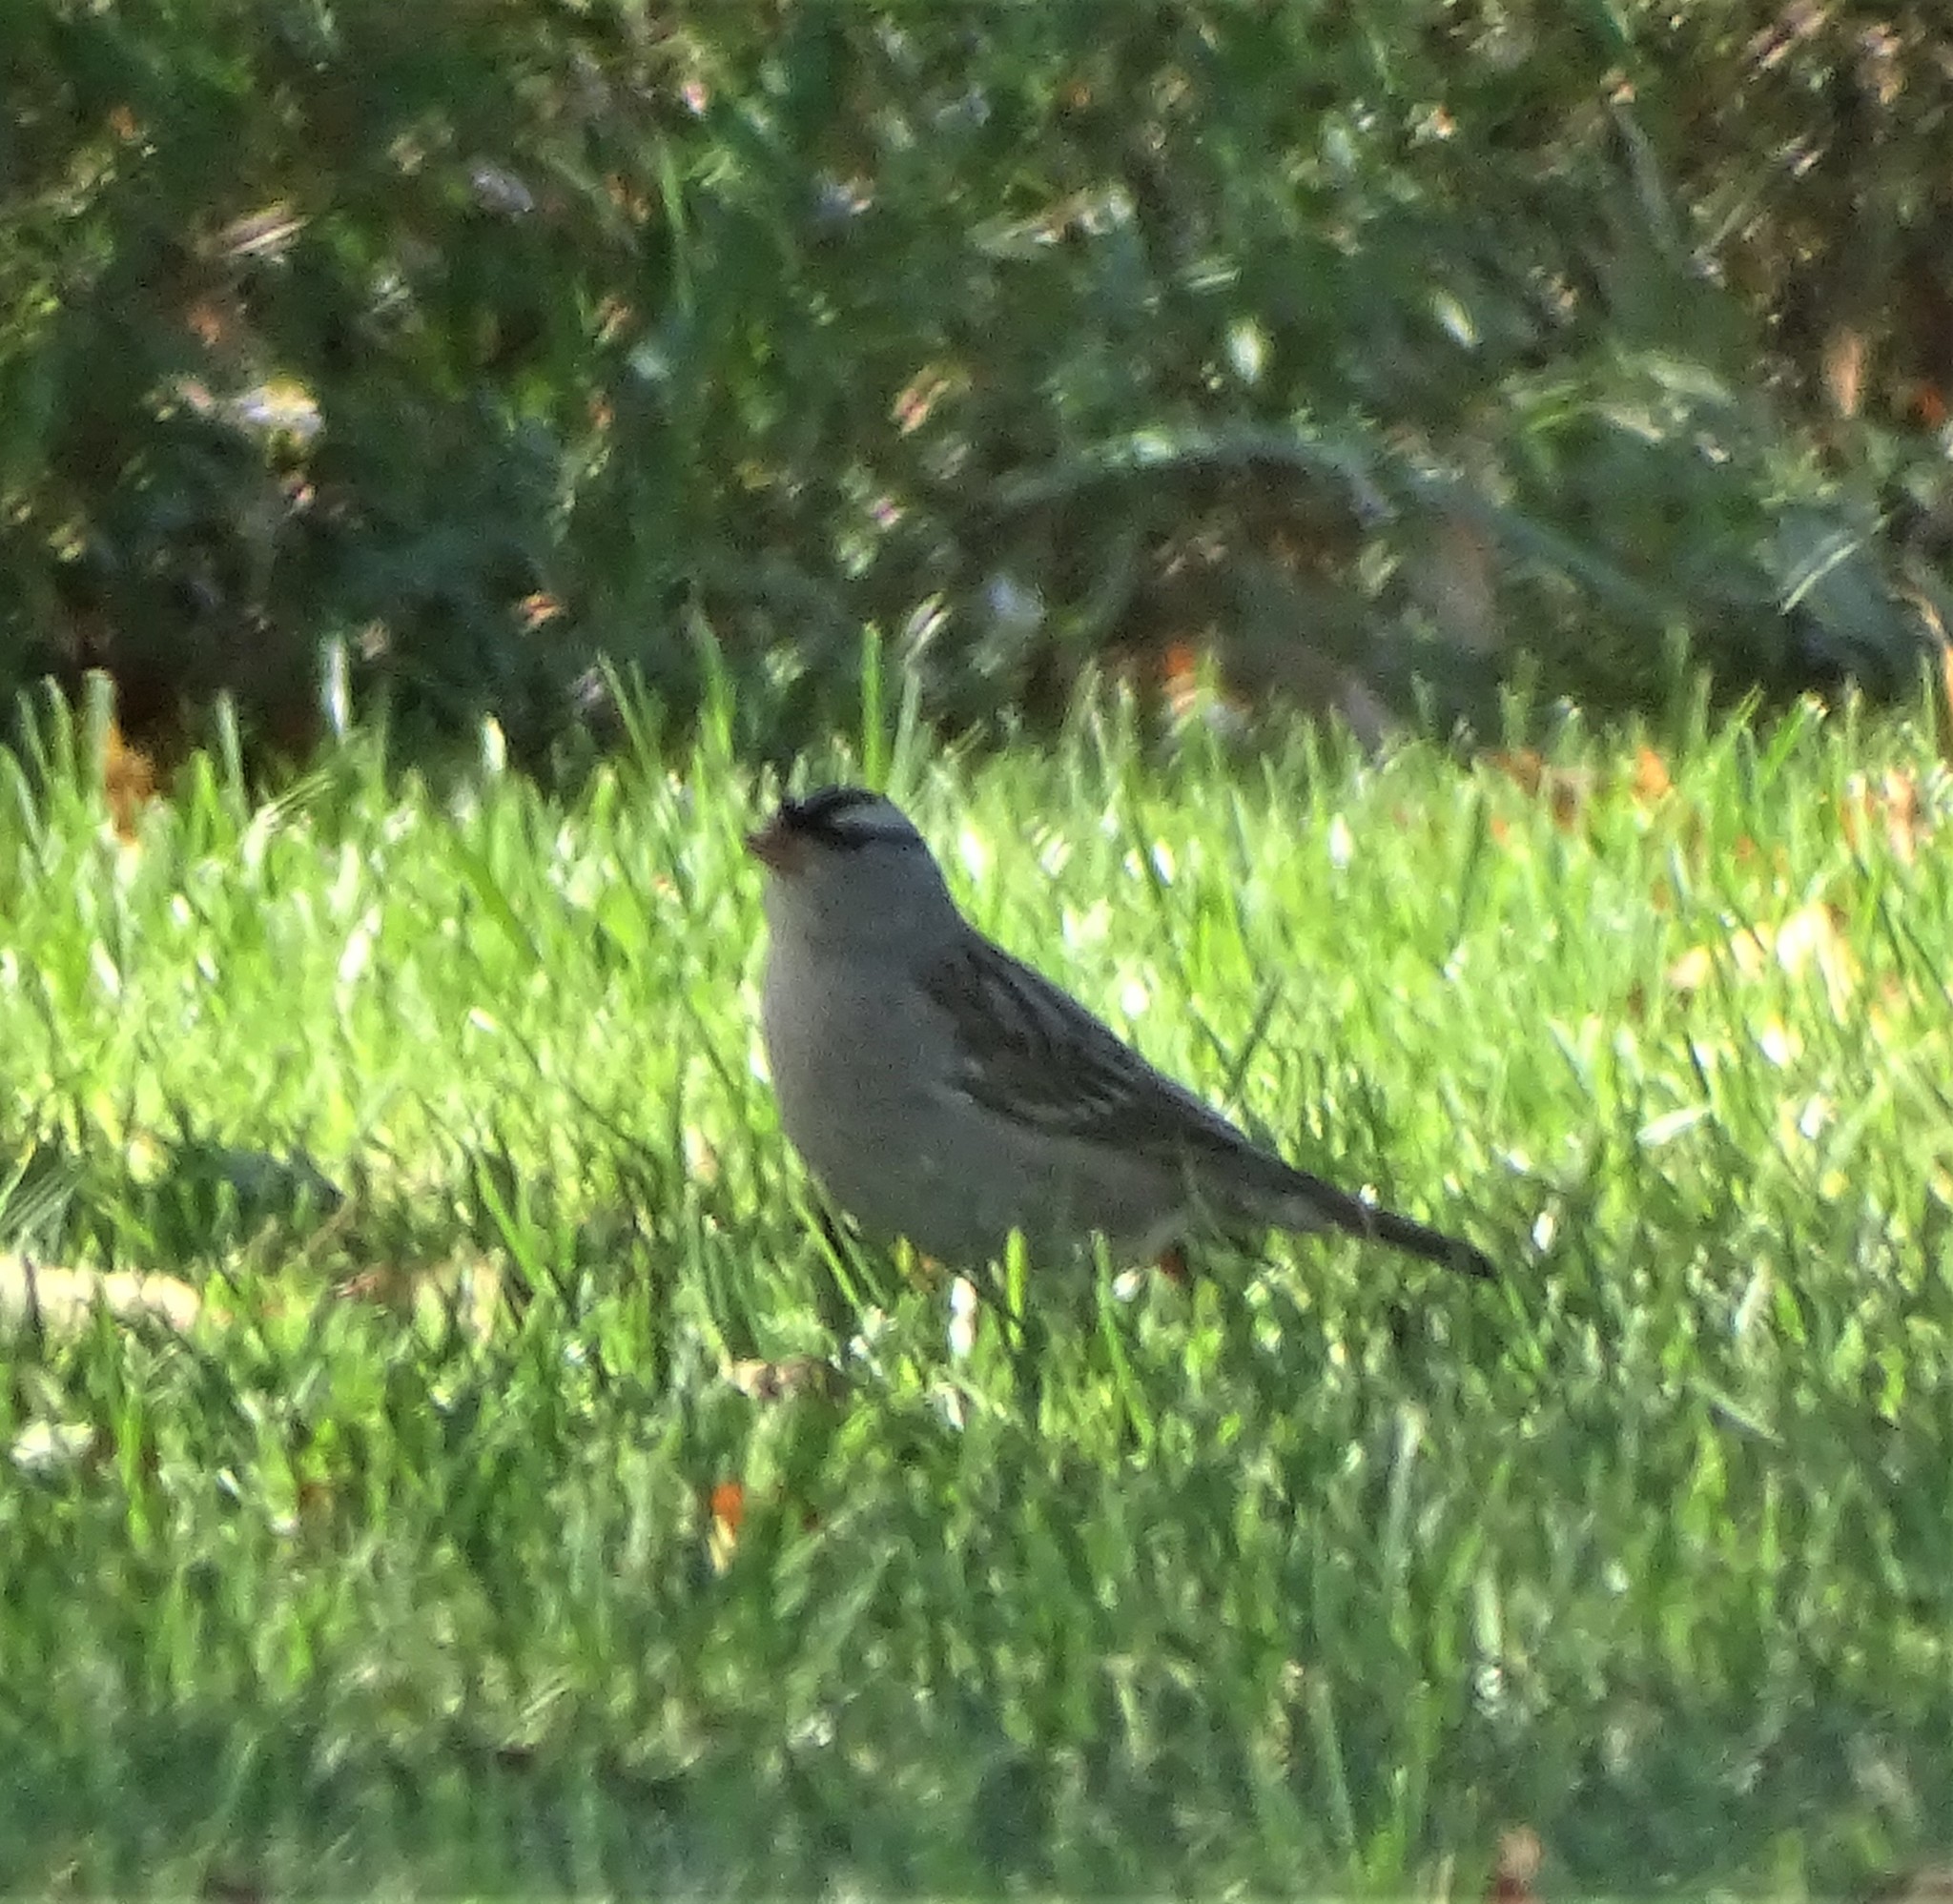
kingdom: Animalia
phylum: Chordata
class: Aves
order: Passeriformes
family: Passerellidae
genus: Zonotrichia
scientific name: Zonotrichia leucophrys
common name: White-crowned sparrow
